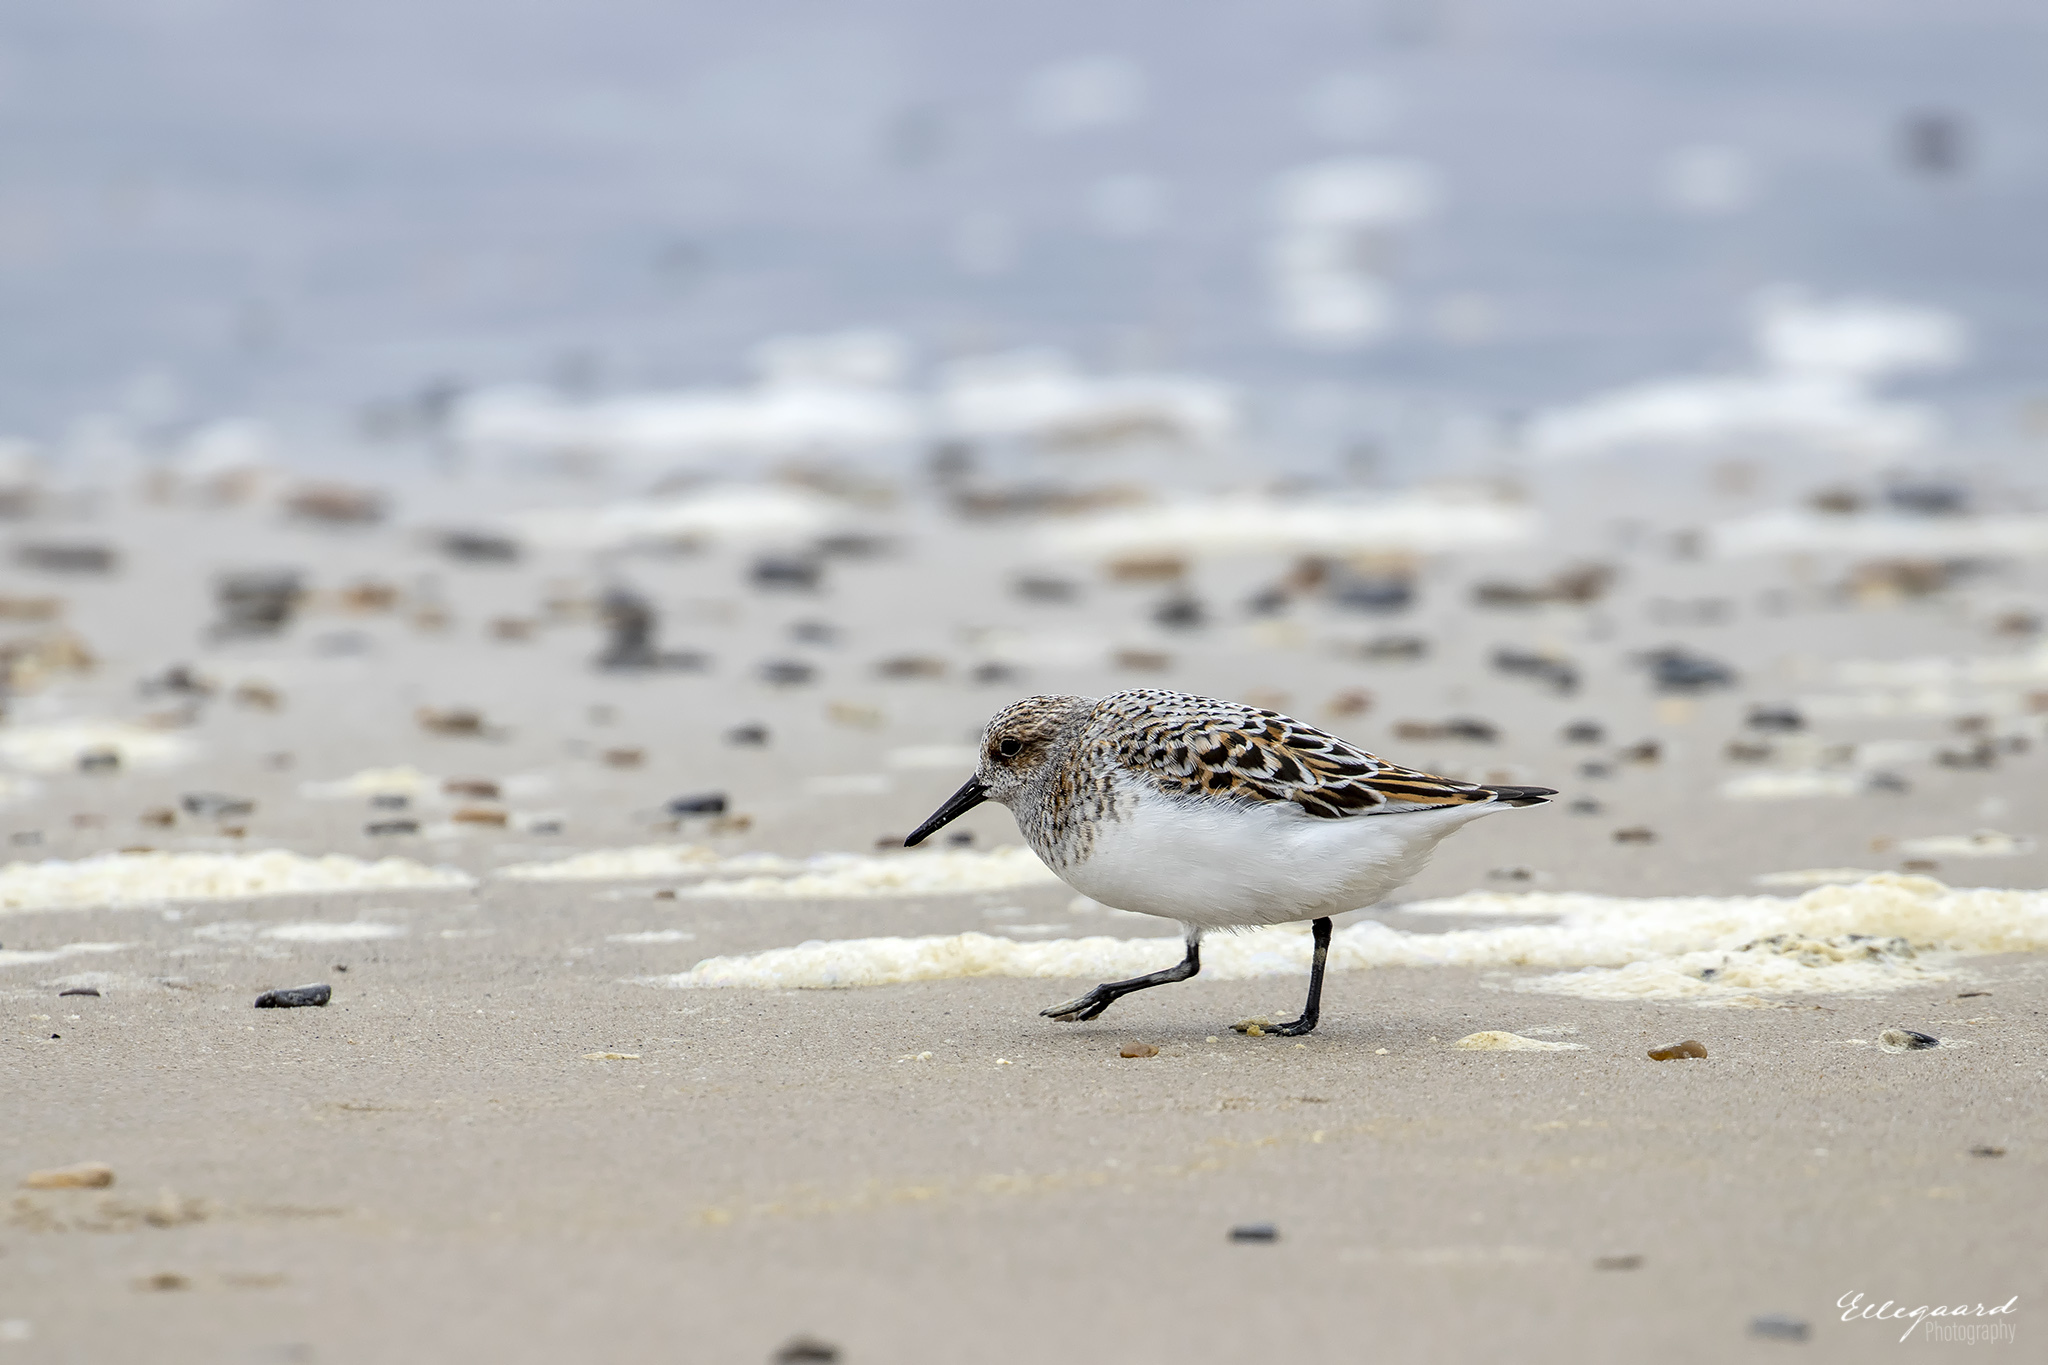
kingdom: Animalia
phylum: Chordata
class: Aves
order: Charadriiformes
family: Scolopacidae
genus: Calidris
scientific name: Calidris alba
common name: Sanderling
